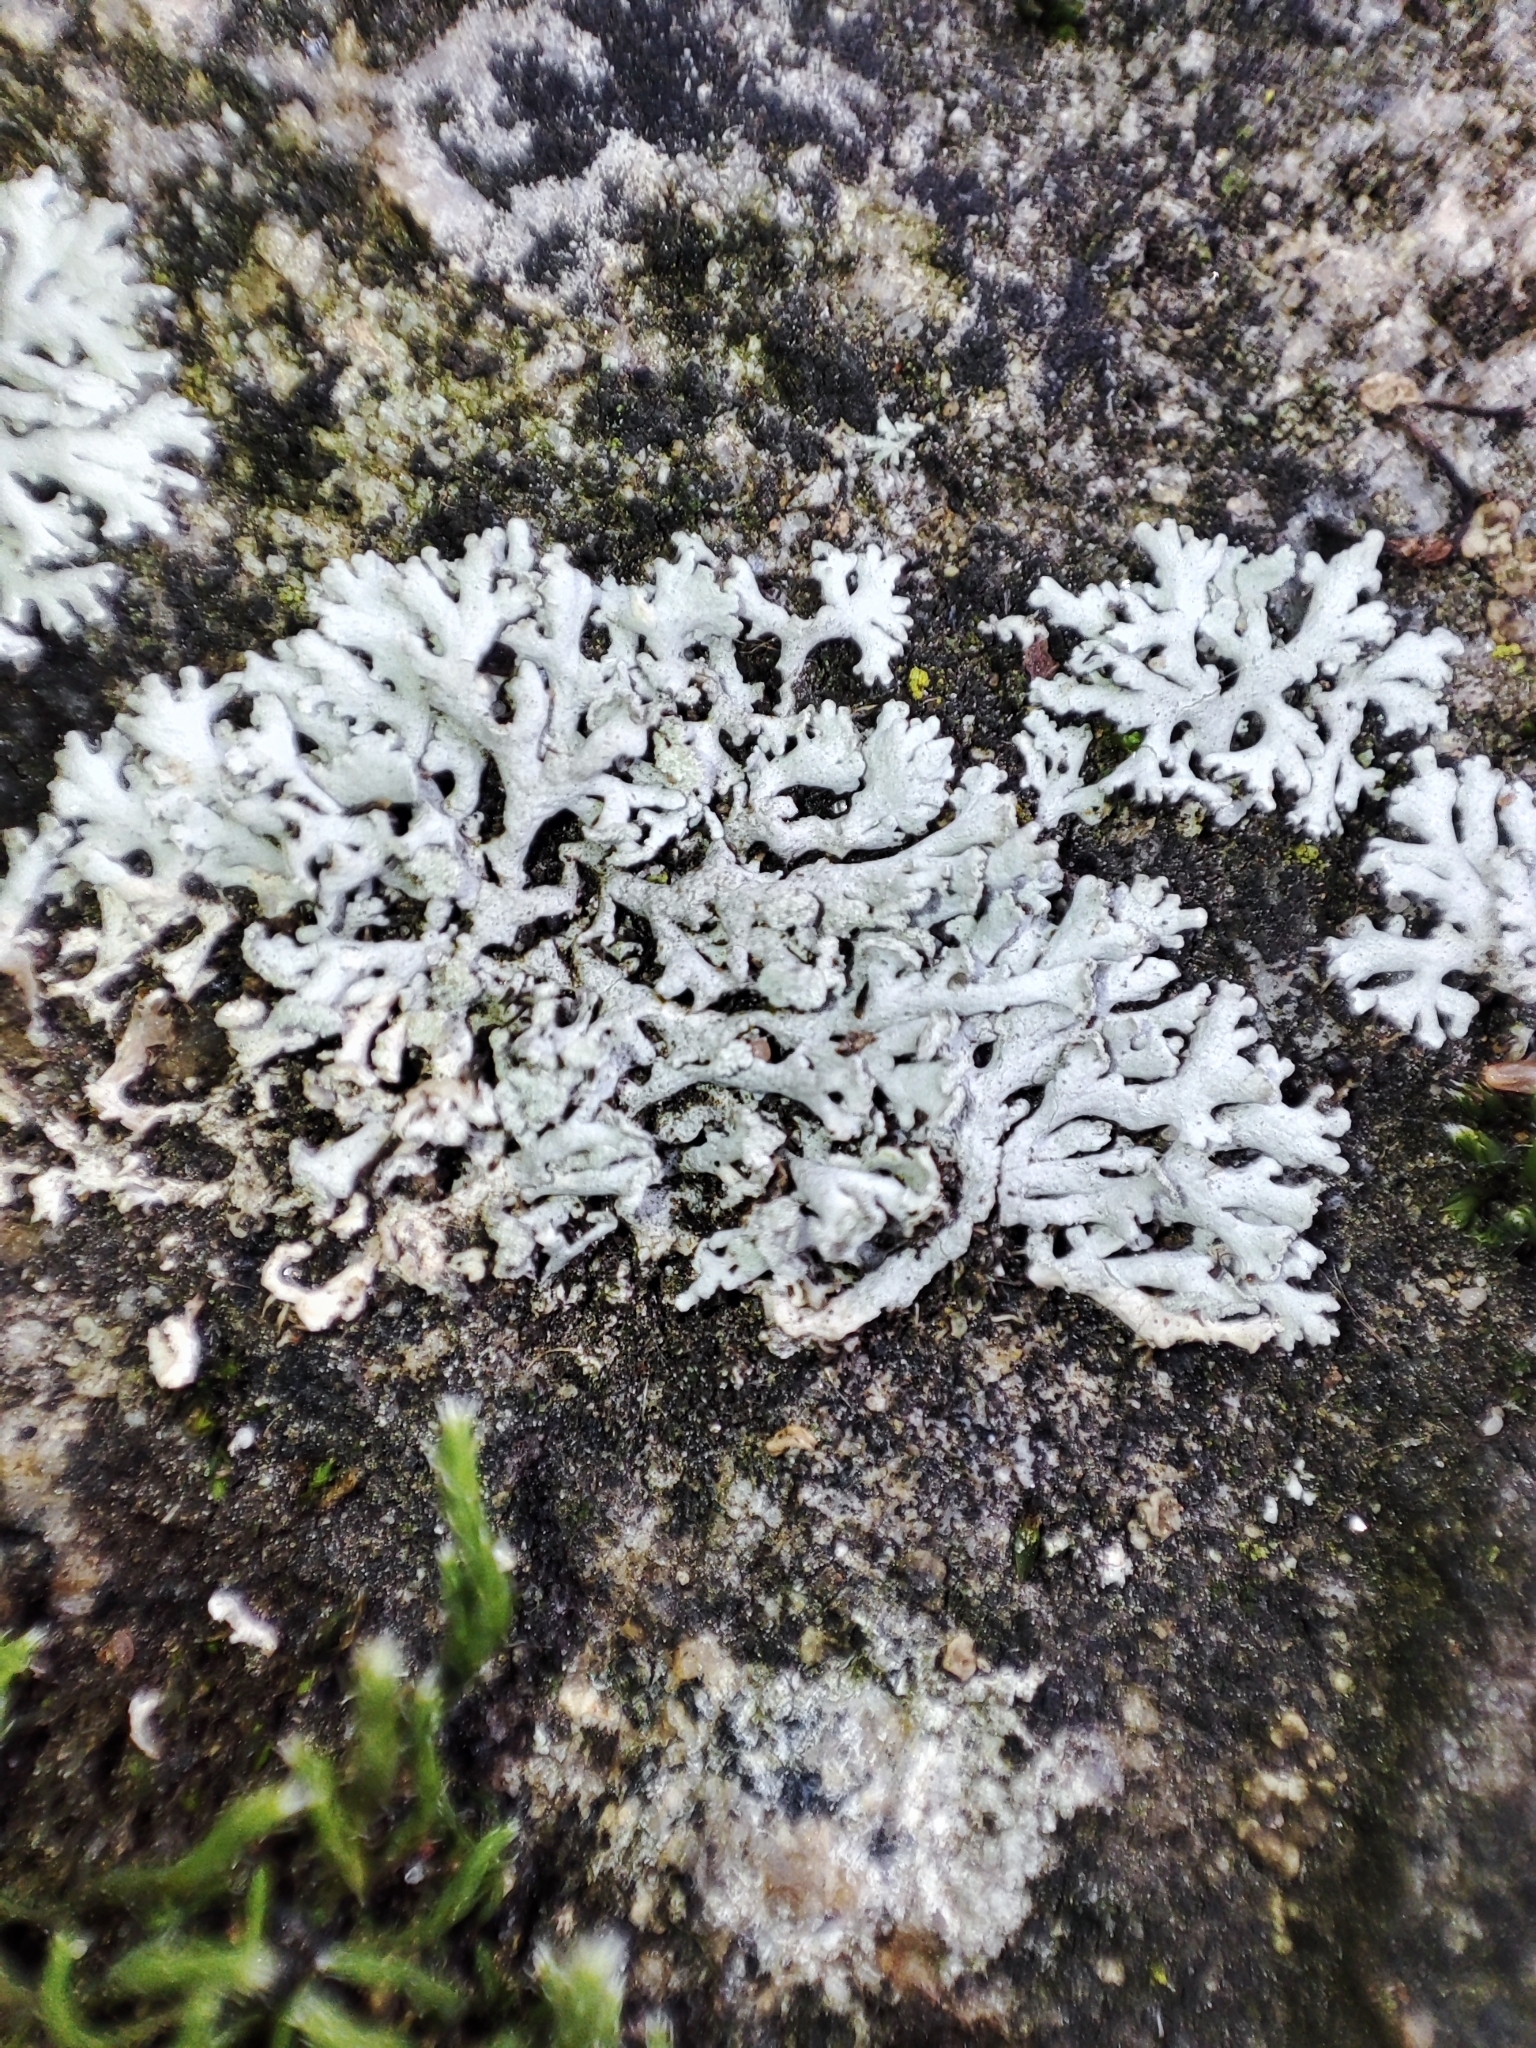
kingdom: Fungi
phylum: Ascomycota
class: Lecanoromycetes
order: Caliciales
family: Physciaceae
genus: Physcia
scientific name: Physcia dimidiata
